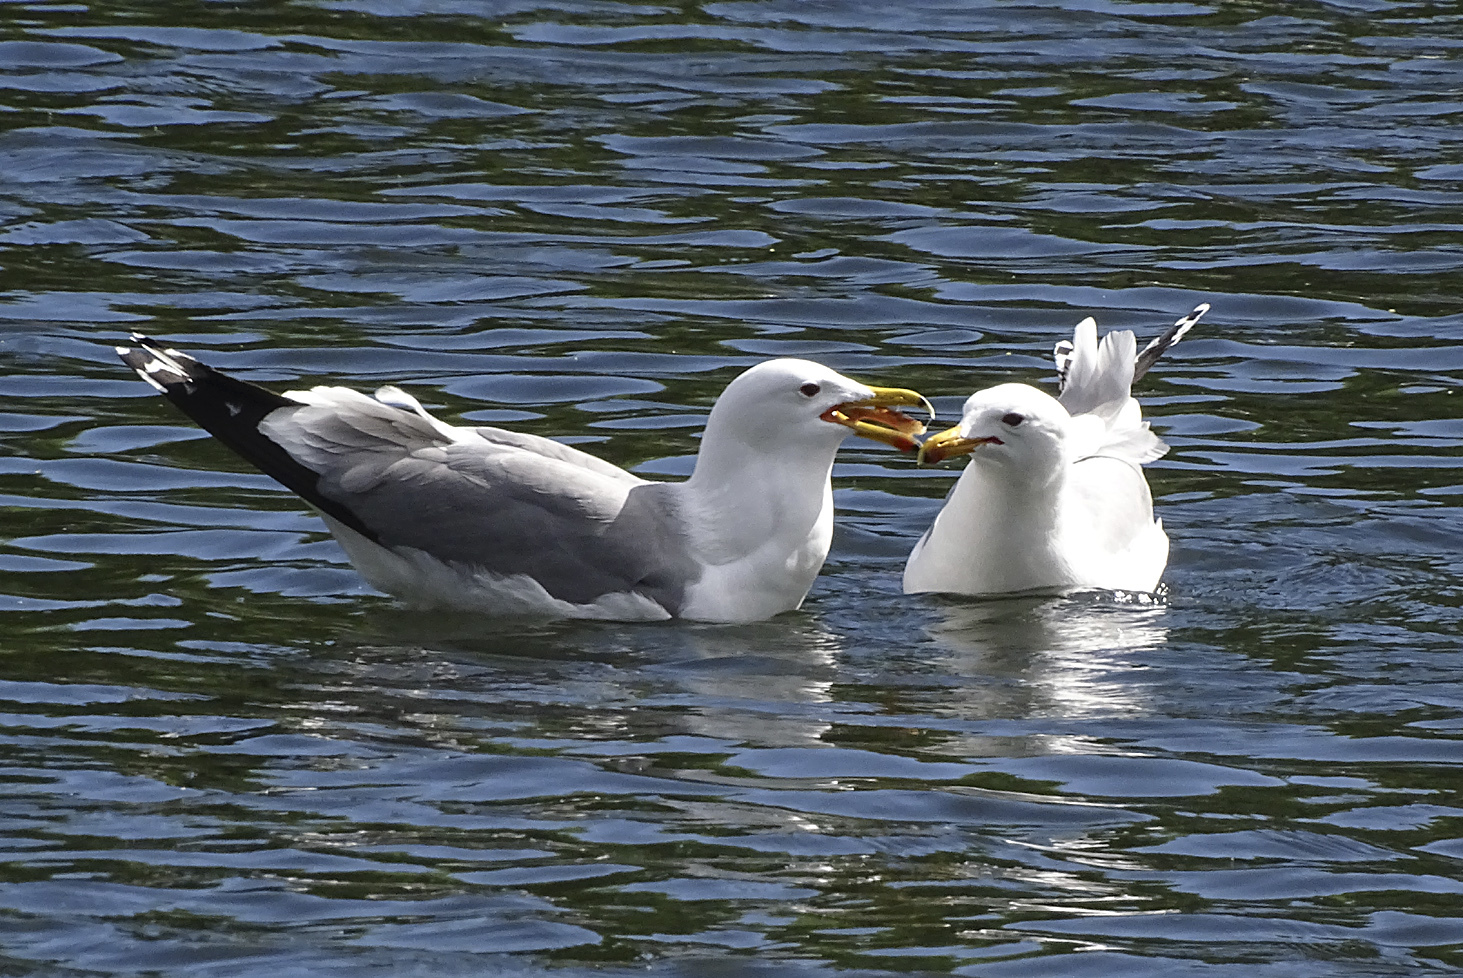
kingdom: Animalia
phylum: Chordata
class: Aves
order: Charadriiformes
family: Laridae
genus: Larus
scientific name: Larus californicus
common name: California gull
